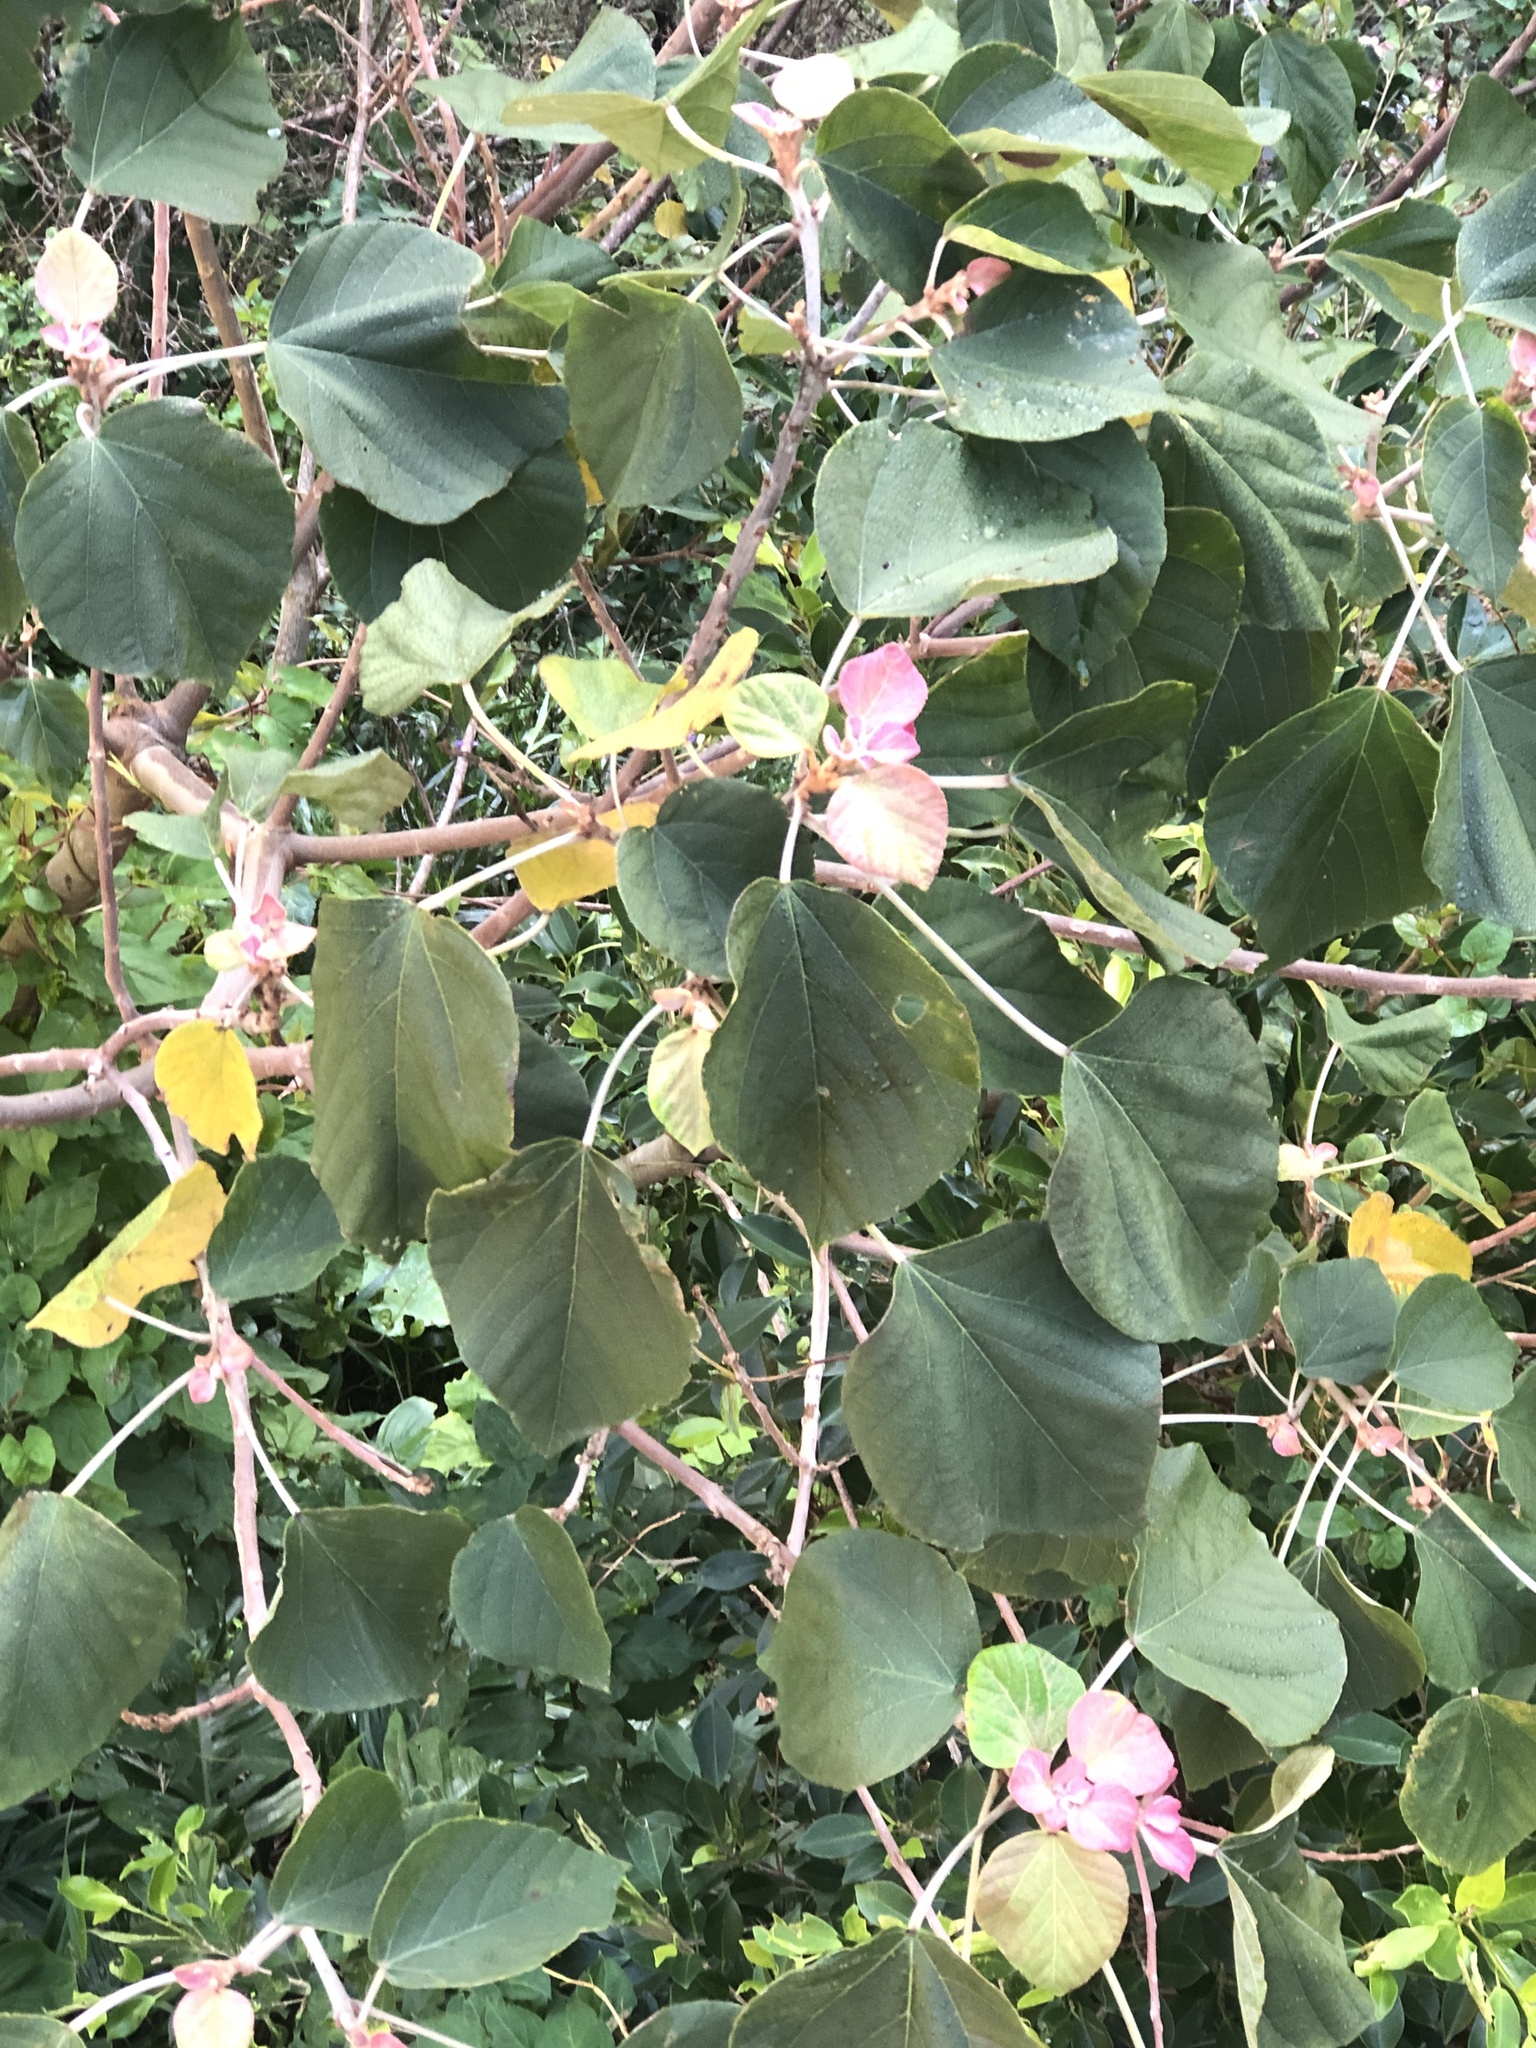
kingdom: Plantae
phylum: Tracheophyta
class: Magnoliopsida
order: Malpighiales
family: Euphorbiaceae
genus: Mallotus
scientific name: Mallotus japonicus
